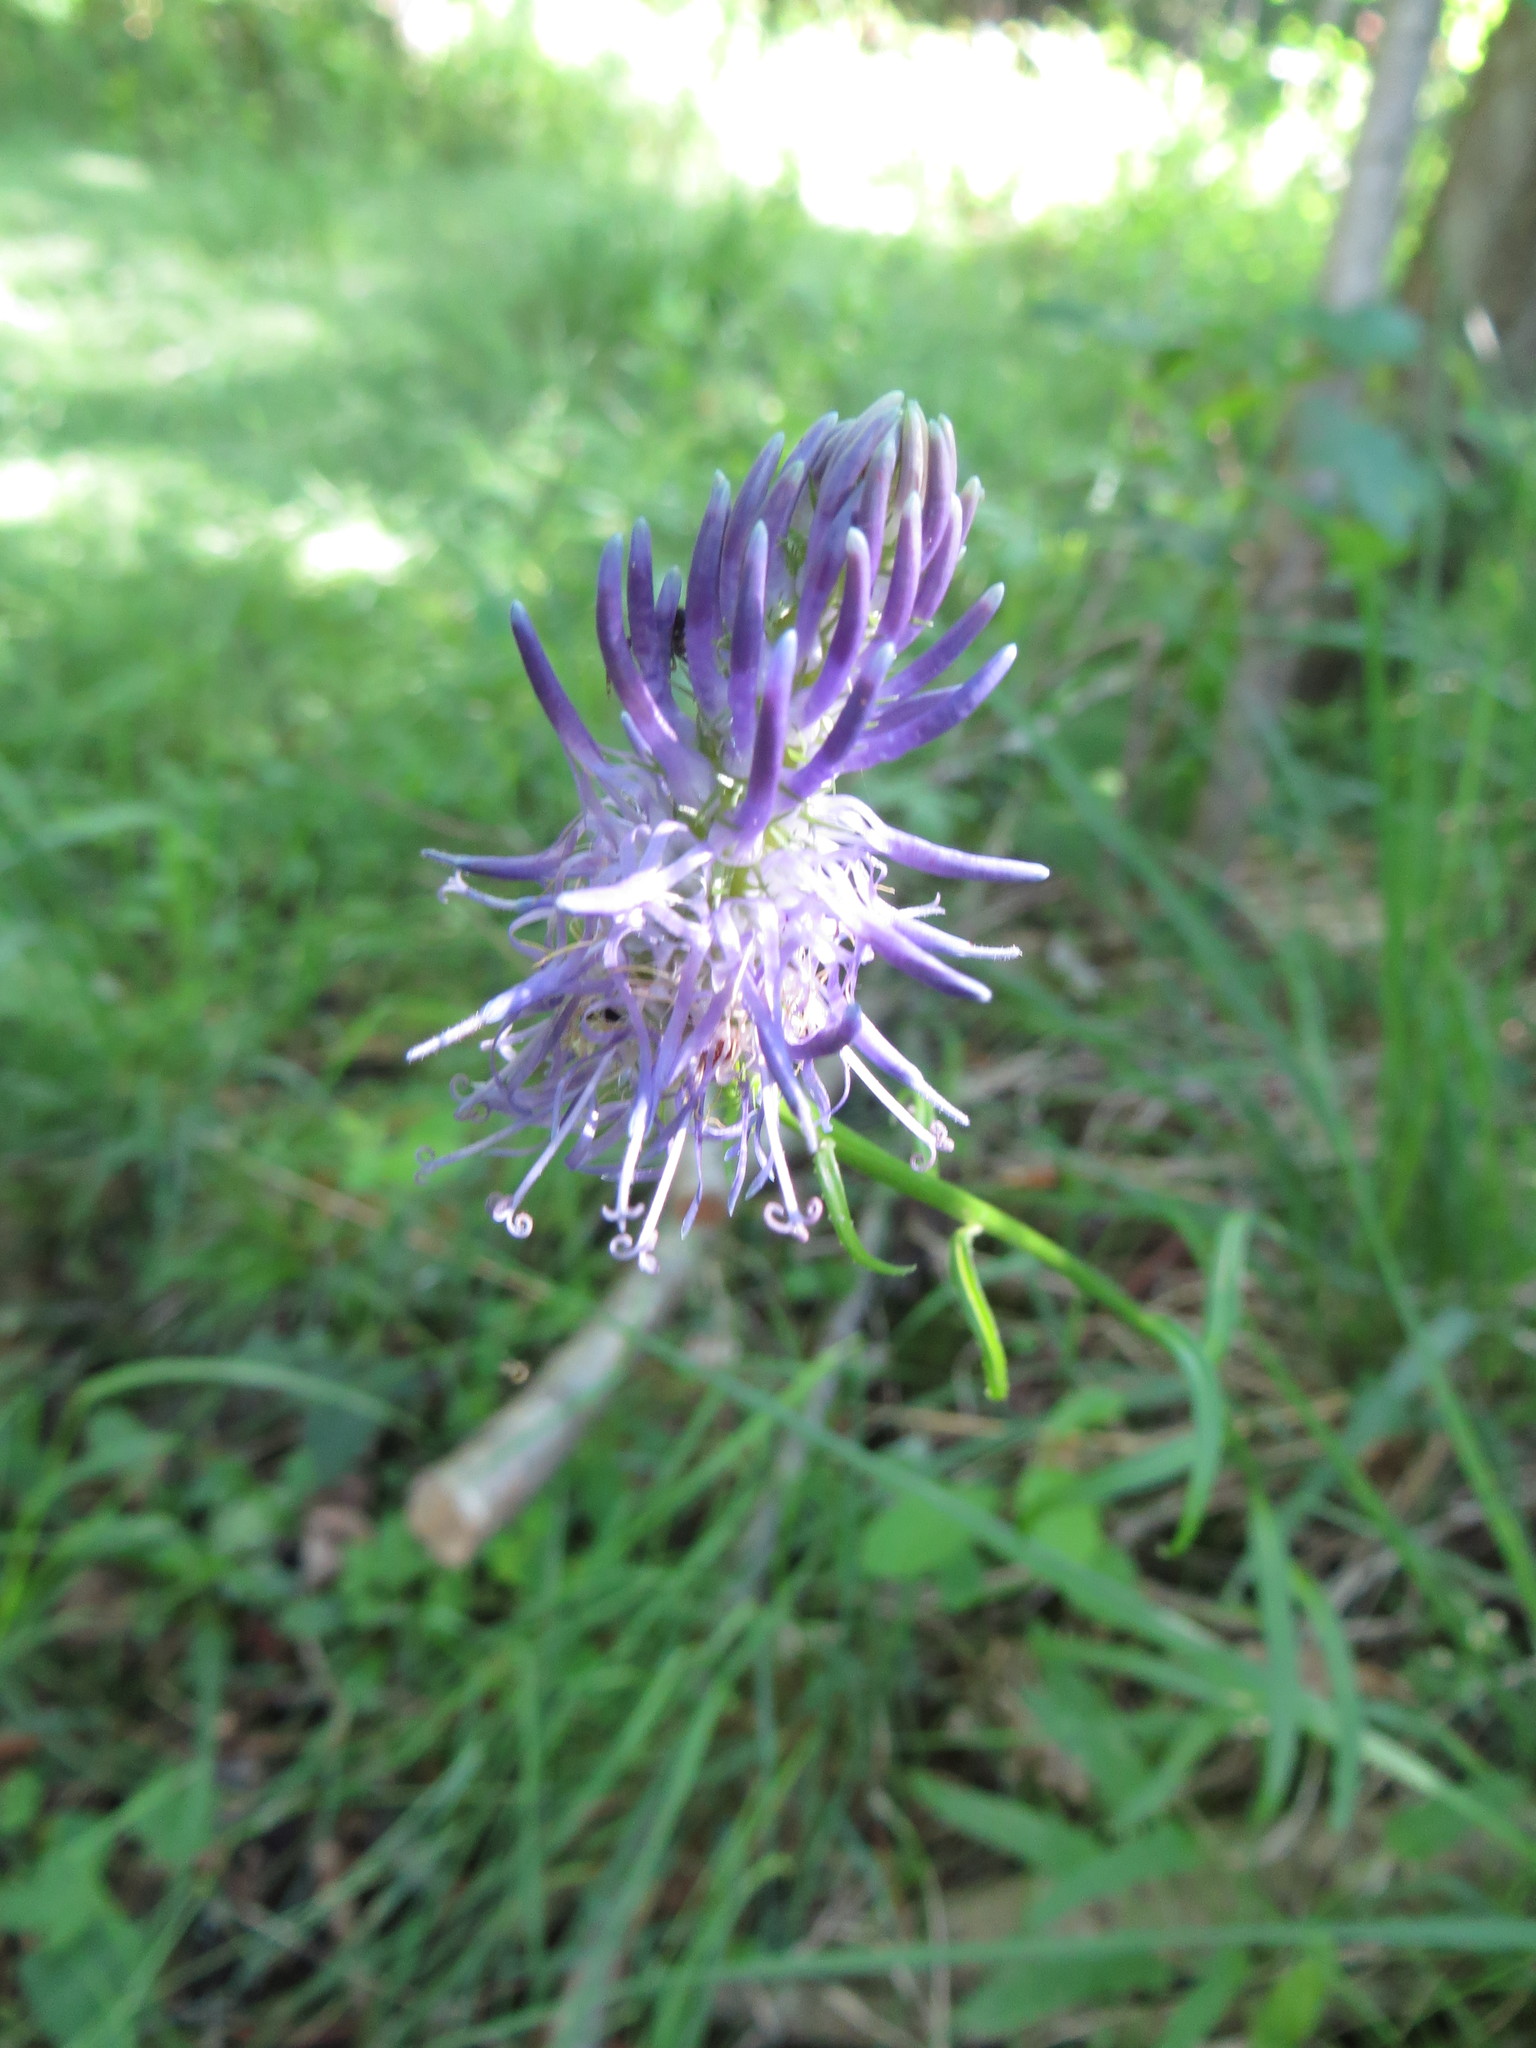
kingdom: Plantae
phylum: Tracheophyta
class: Magnoliopsida
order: Asterales
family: Campanulaceae
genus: Phyteuma
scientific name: Phyteuma betonicifolium
